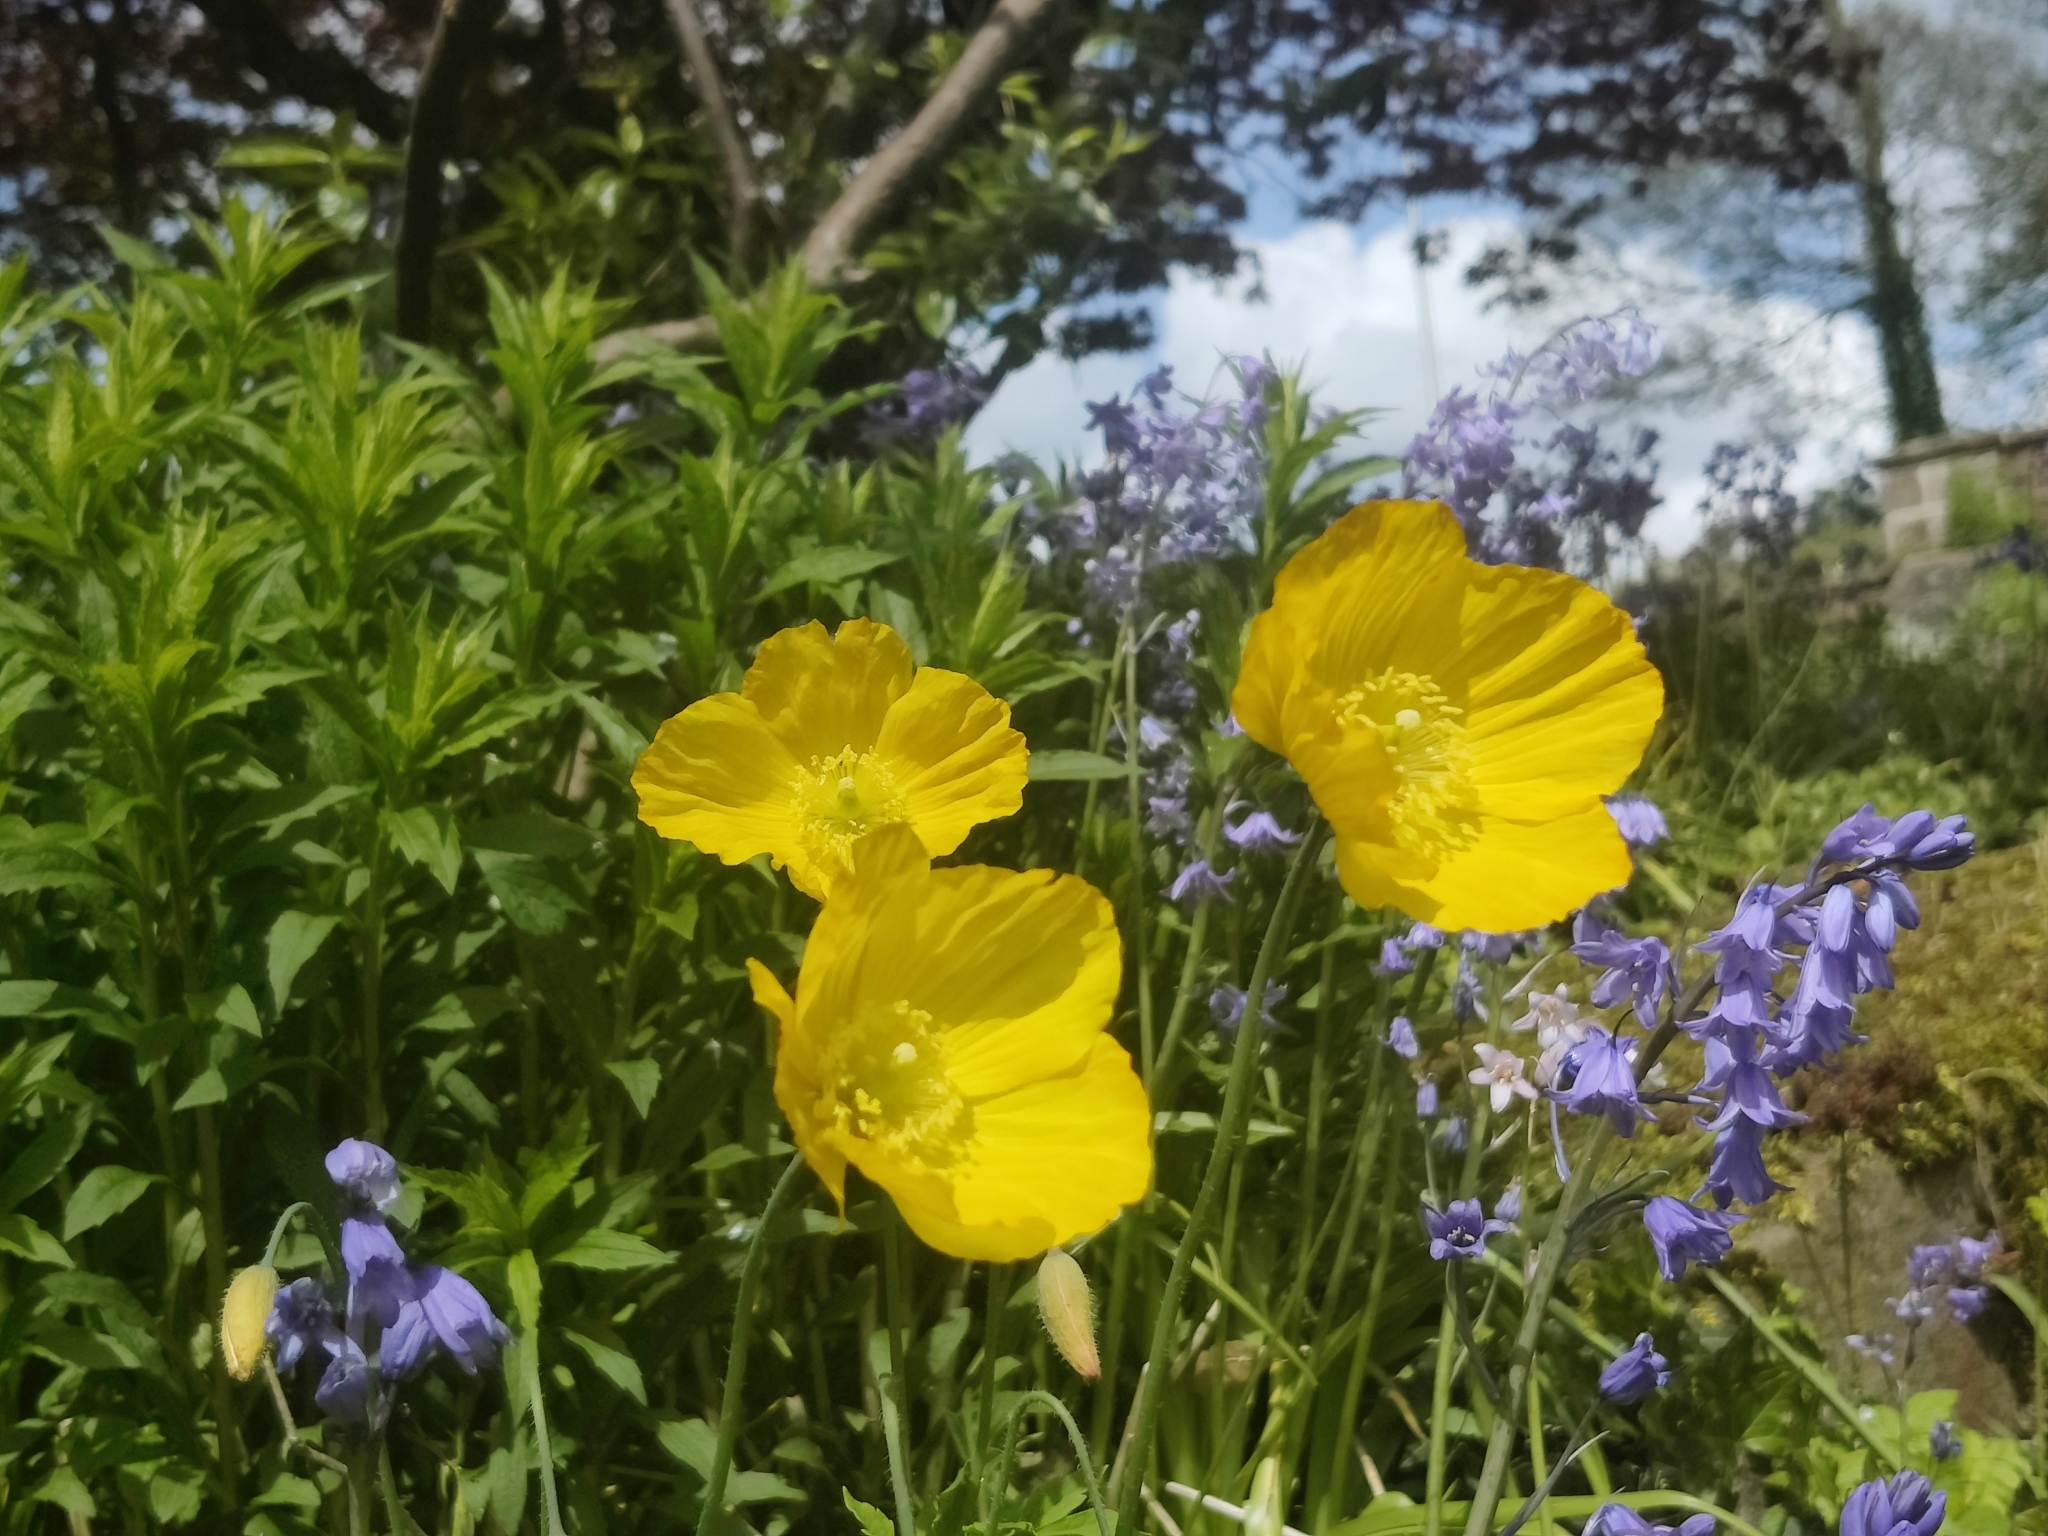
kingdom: Plantae
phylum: Tracheophyta
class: Magnoliopsida
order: Ranunculales
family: Papaveraceae
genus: Papaver
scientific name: Papaver cambricum
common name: Poppy
